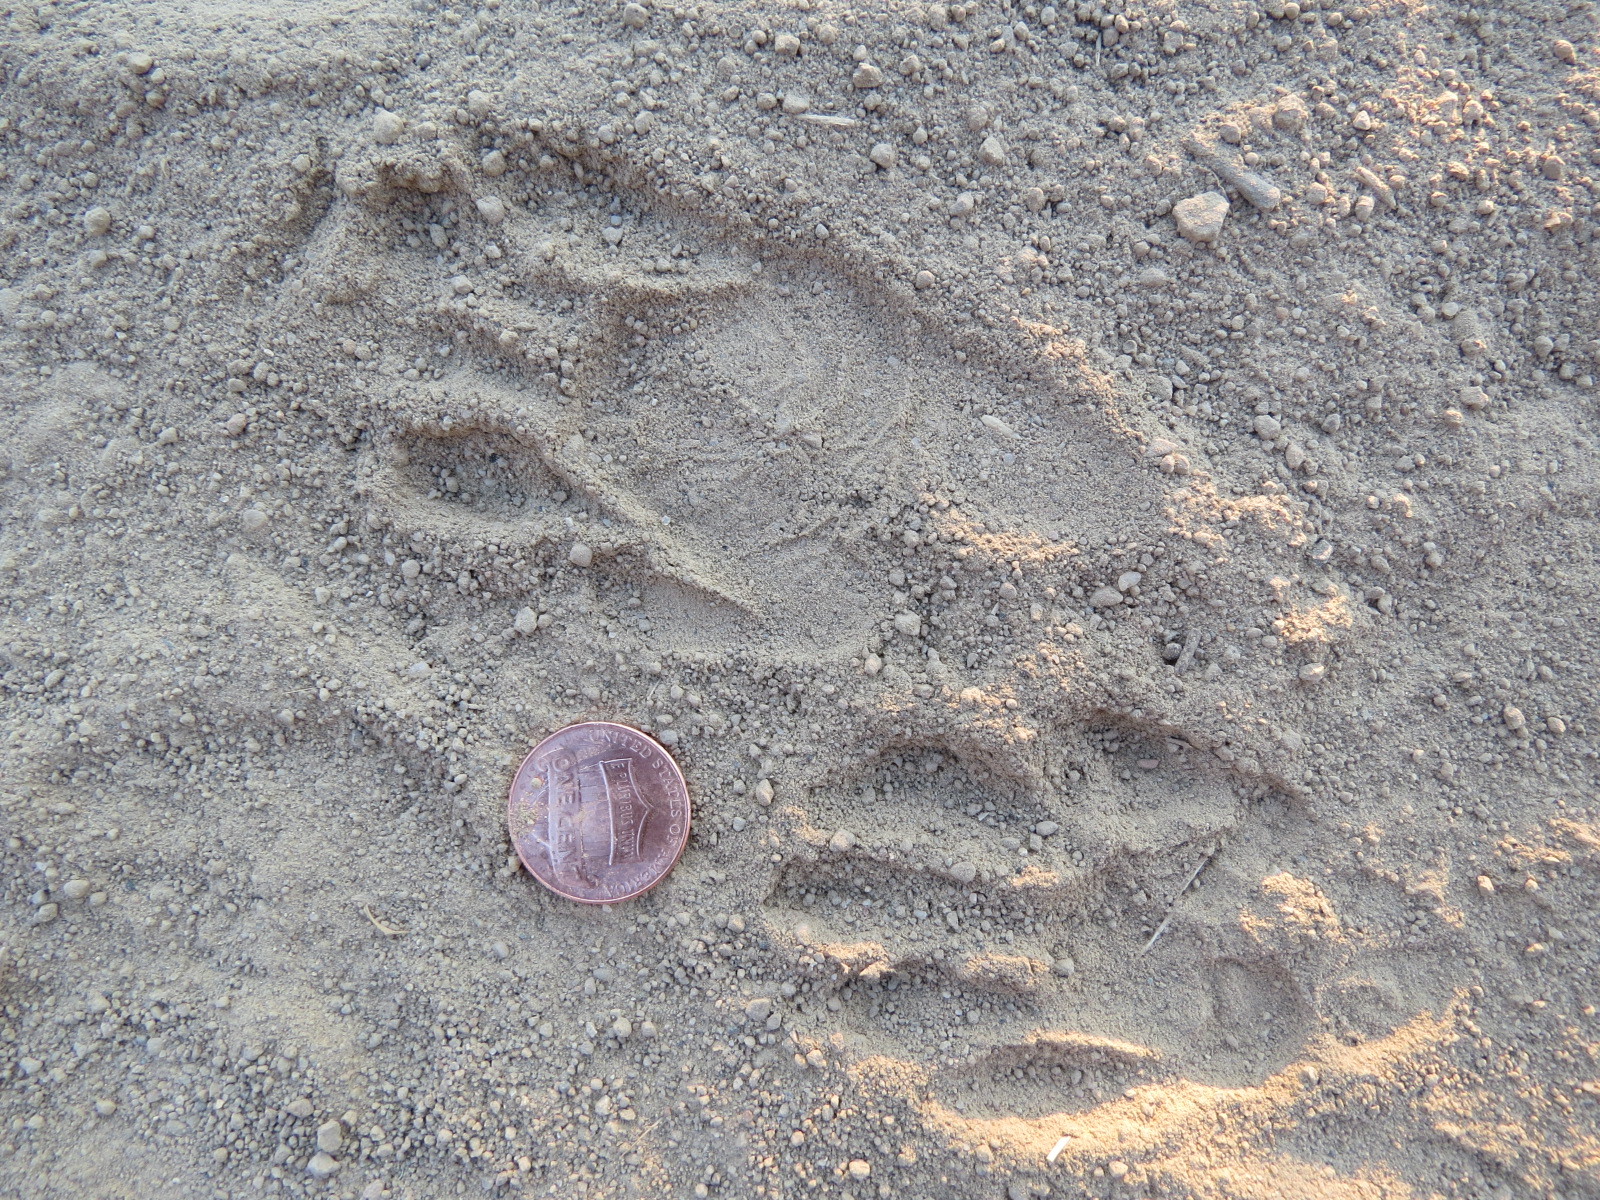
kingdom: Animalia
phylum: Chordata
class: Mammalia
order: Carnivora
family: Procyonidae
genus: Procyon
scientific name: Procyon lotor
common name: Raccoon
